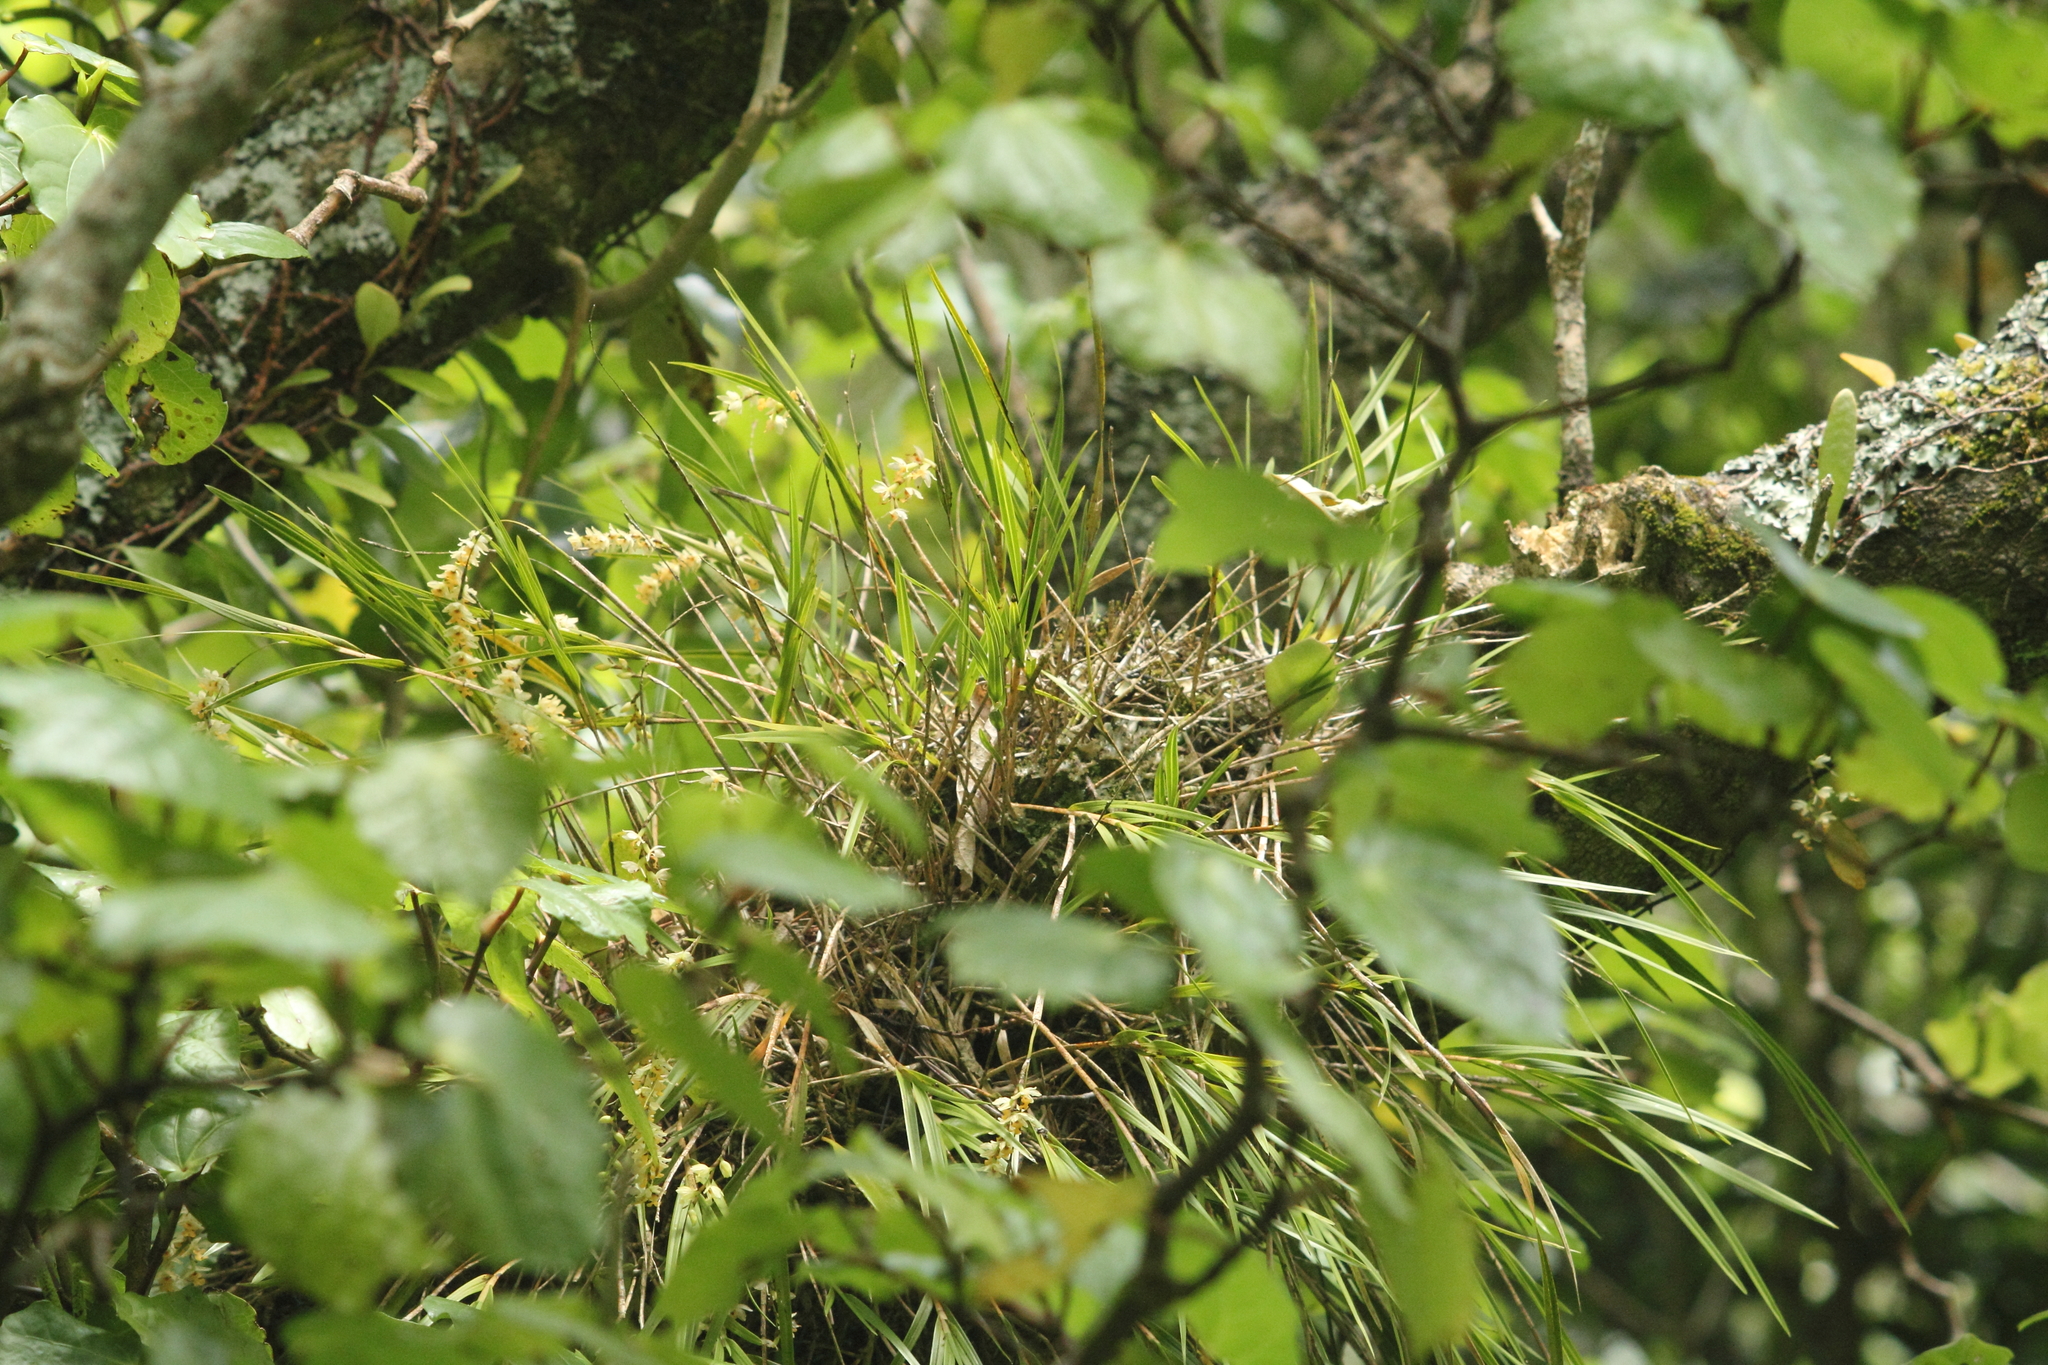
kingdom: Plantae
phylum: Tracheophyta
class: Liliopsida
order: Asparagales
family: Orchidaceae
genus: Earina
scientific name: Earina mucronata
